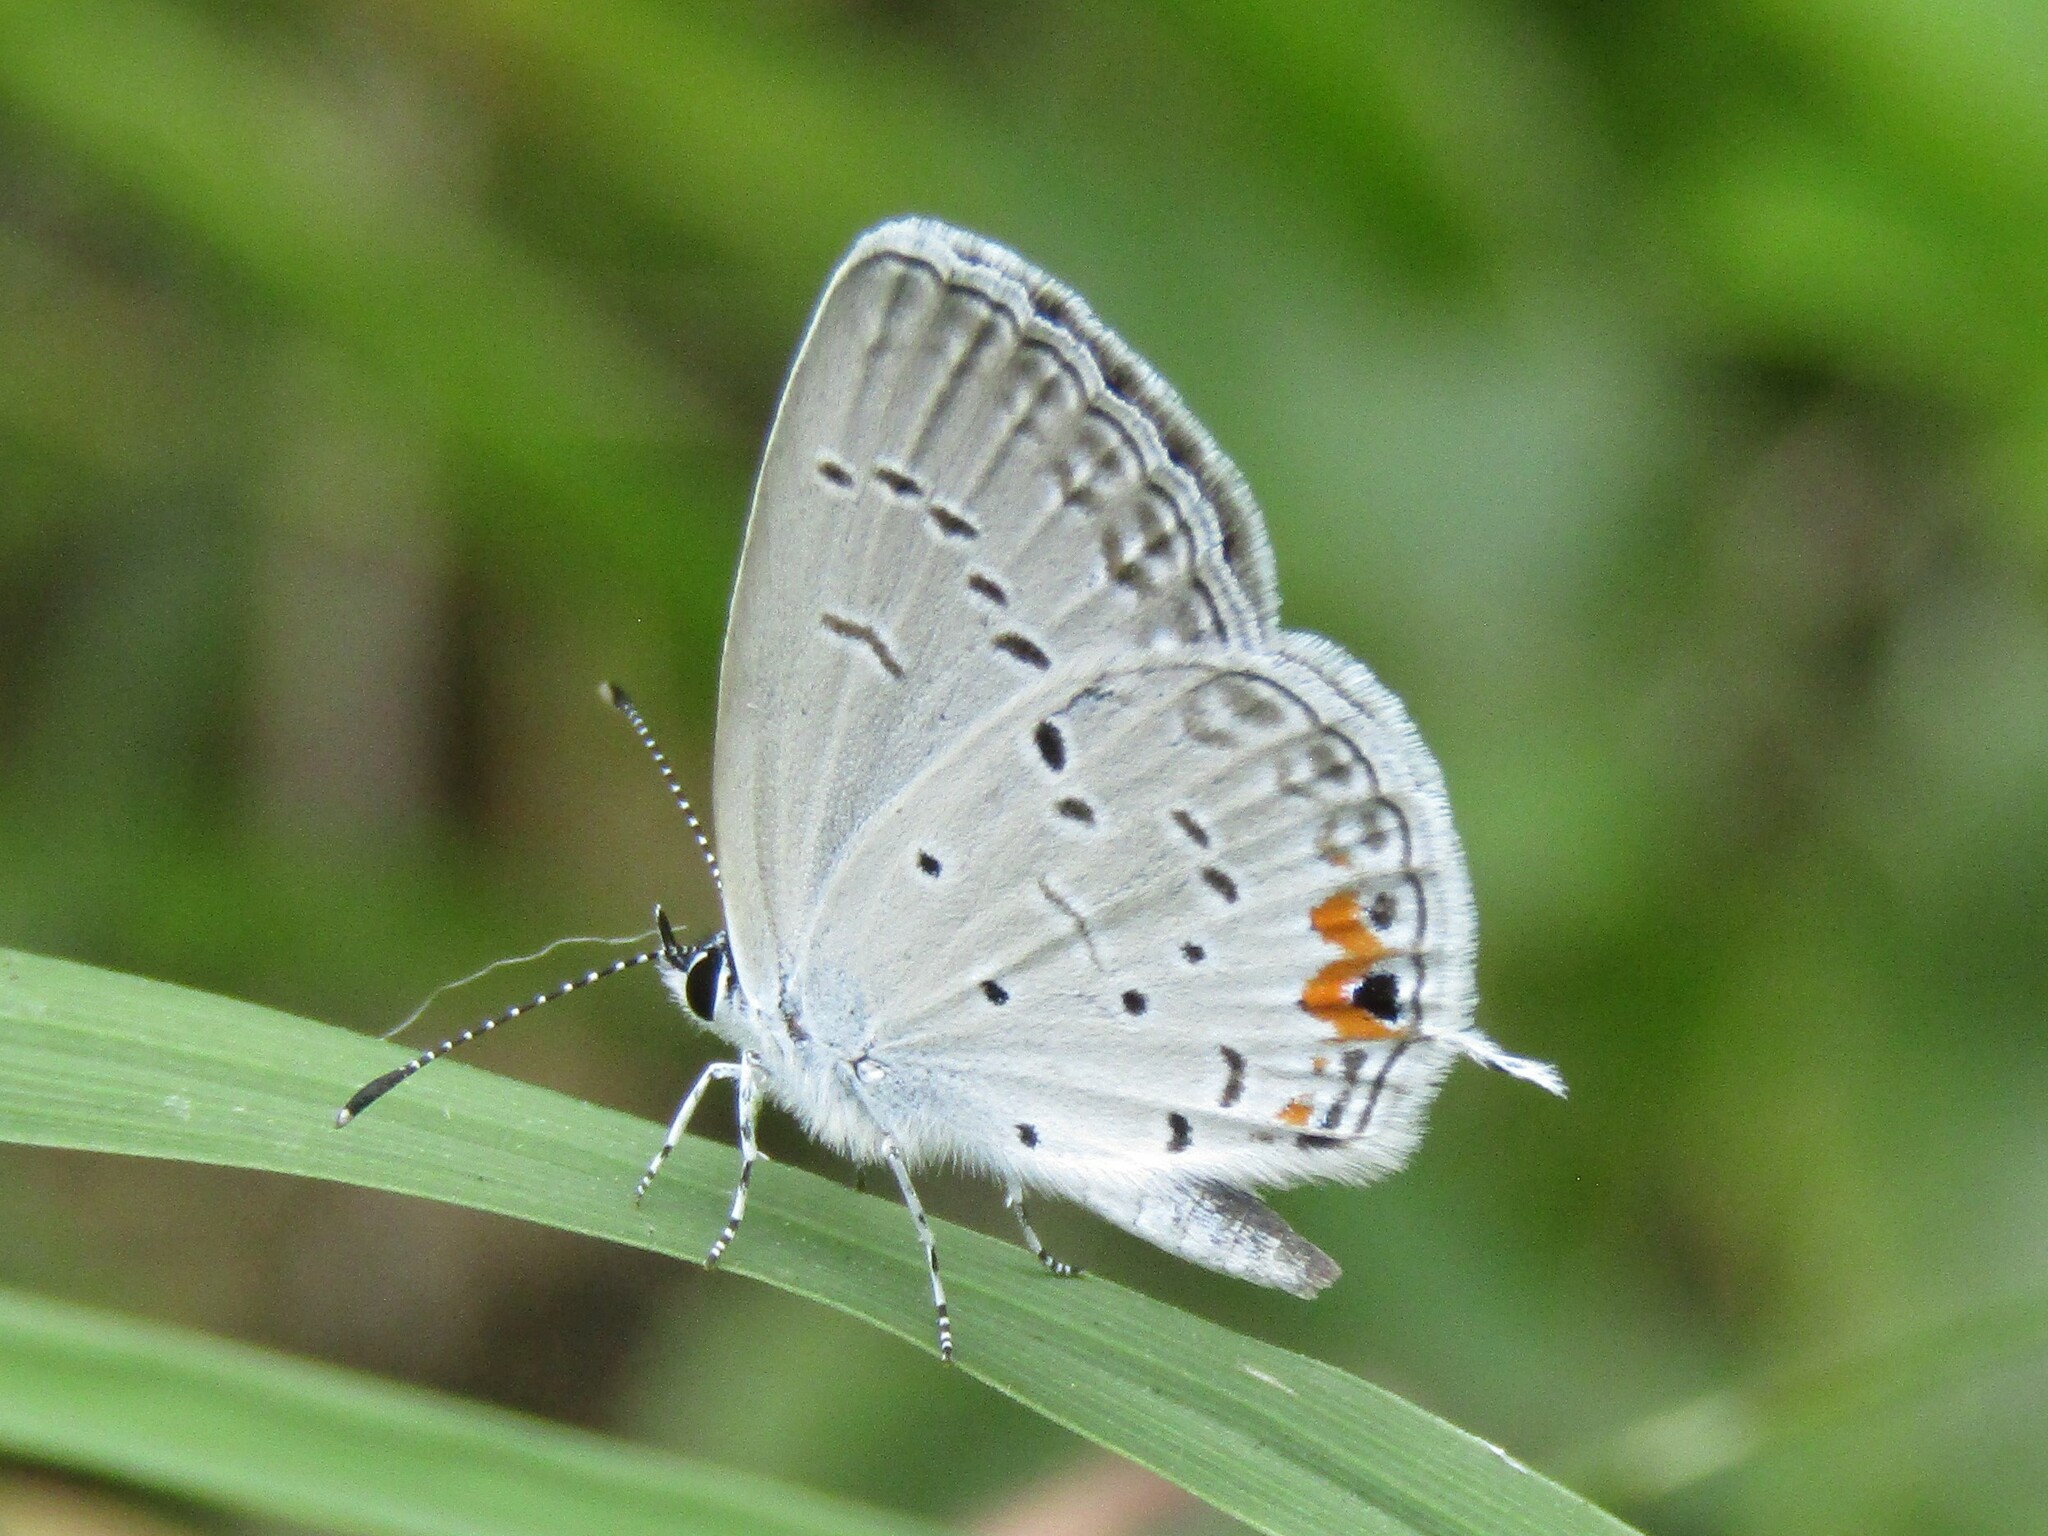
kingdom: Animalia
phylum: Arthropoda
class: Insecta
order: Lepidoptera
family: Lycaenidae
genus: Elkalyce
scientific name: Elkalyce comyntas
